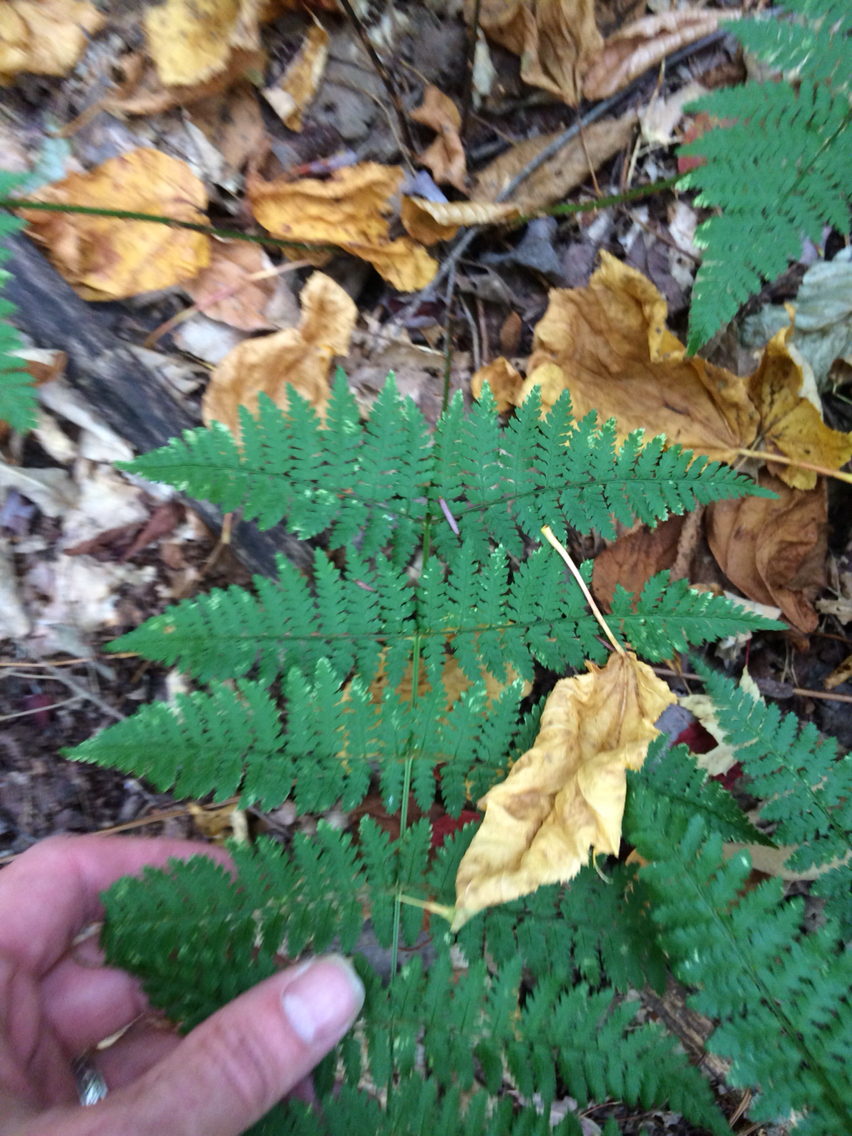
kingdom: Plantae
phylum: Tracheophyta
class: Polypodiopsida
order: Polypodiales
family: Dryopteridaceae
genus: Dryopteris
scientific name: Dryopteris intermedia
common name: Evergreen wood fern
